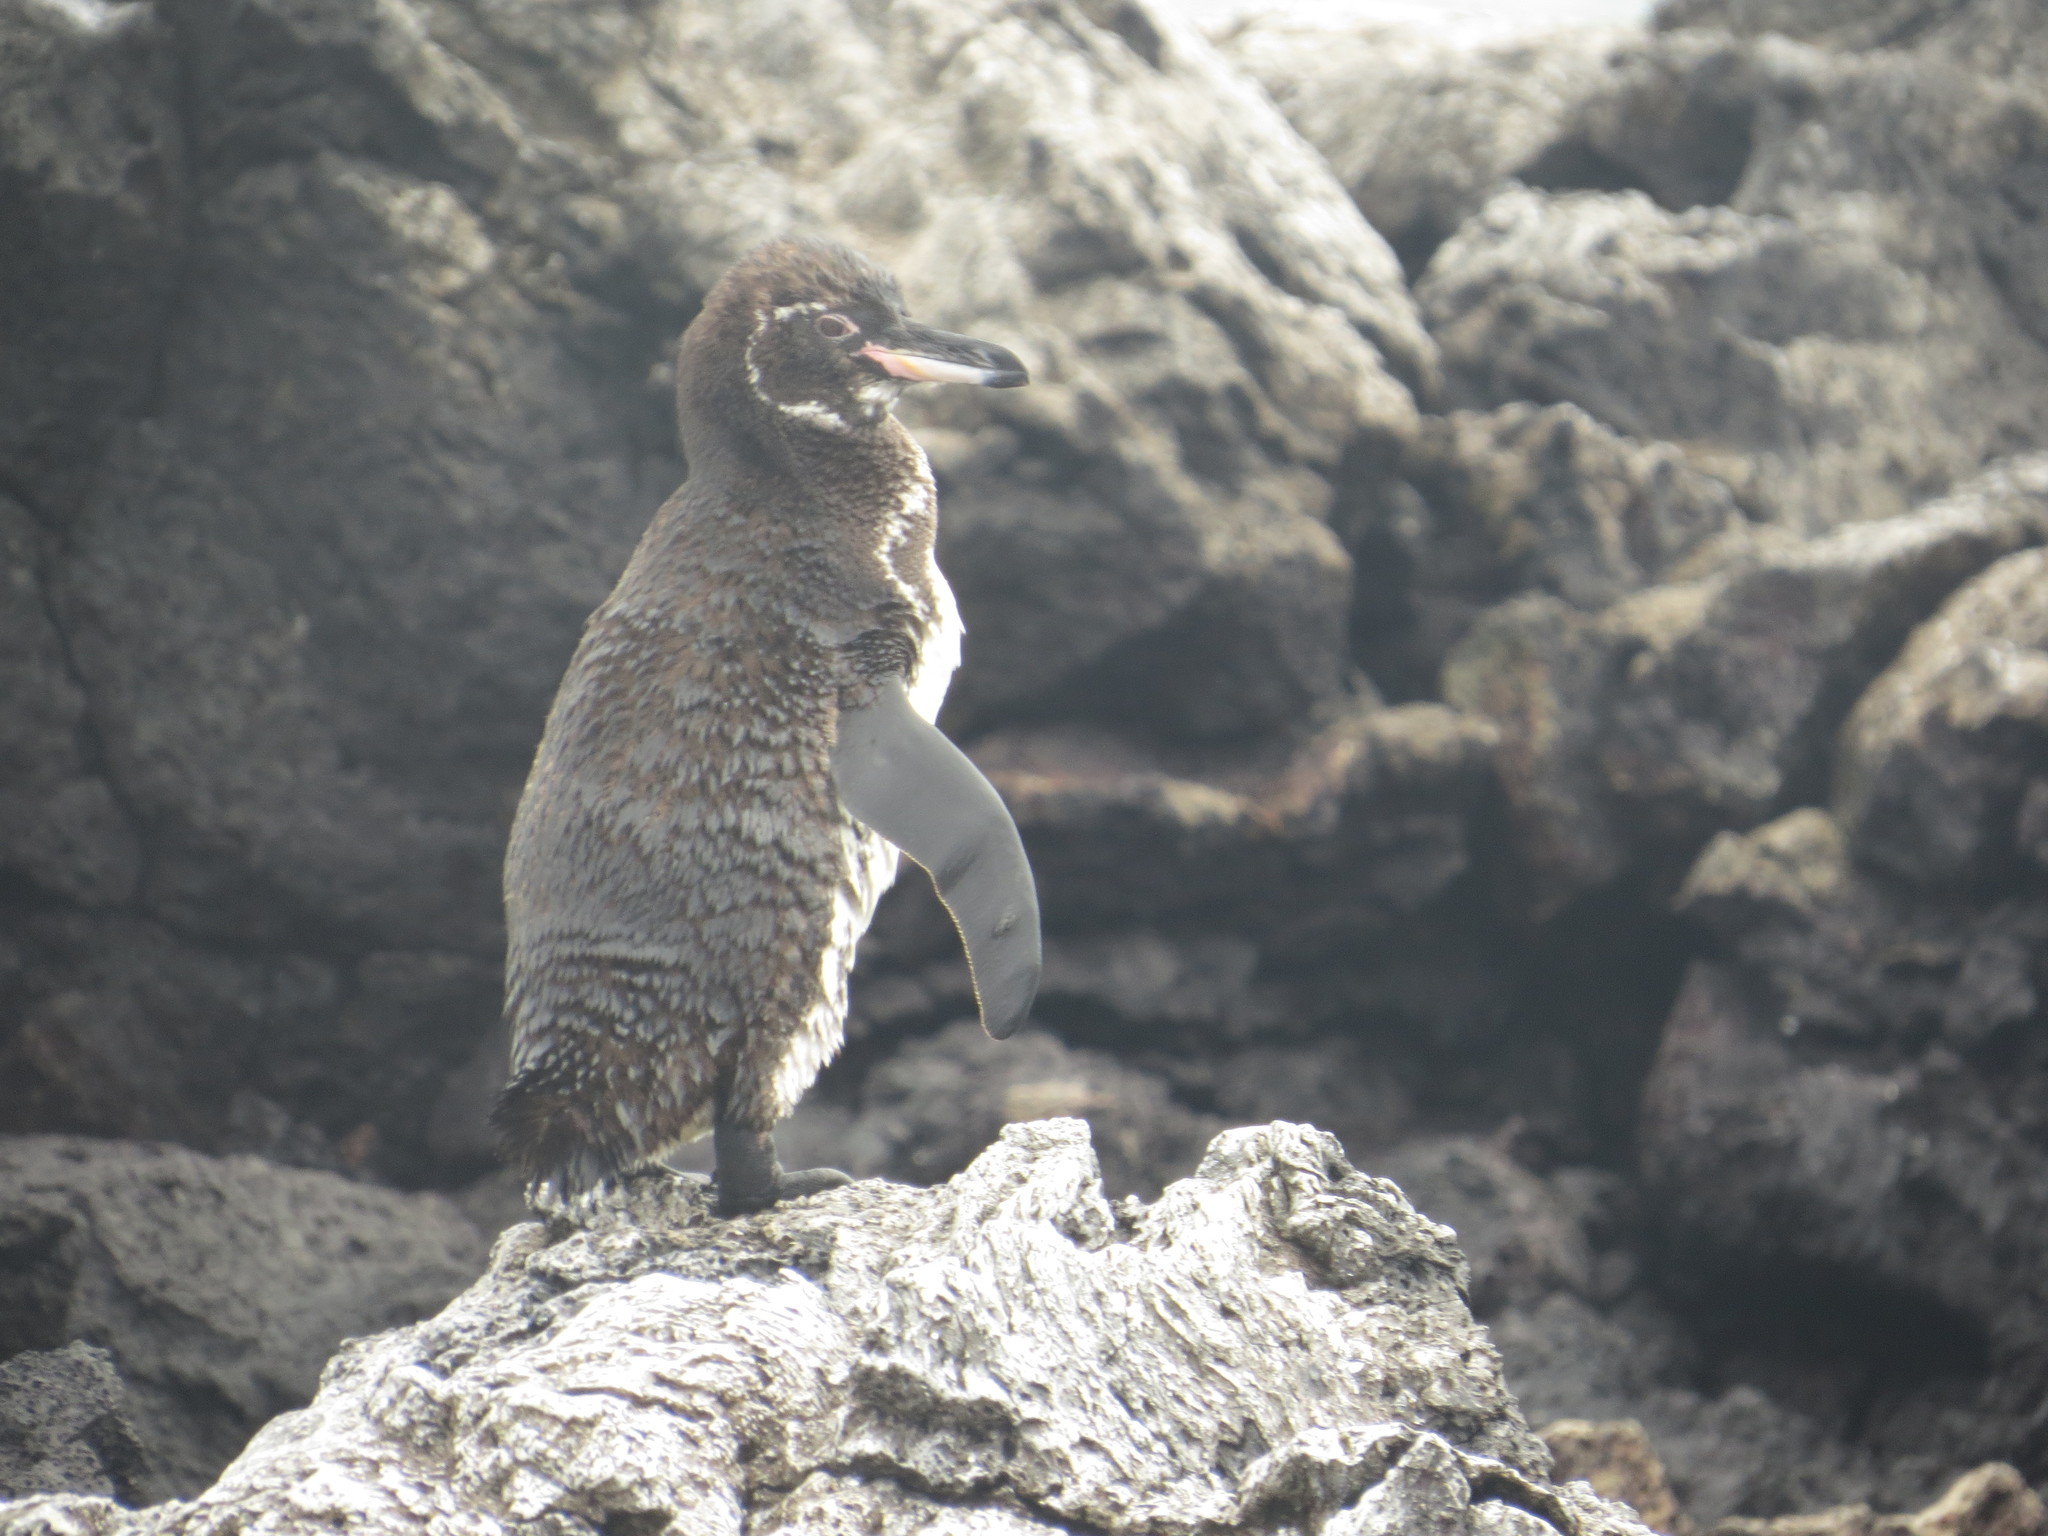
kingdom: Animalia
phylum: Chordata
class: Aves
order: Sphenisciformes
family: Spheniscidae
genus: Spheniscus
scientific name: Spheniscus mendiculus
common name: Galapagos penguin
